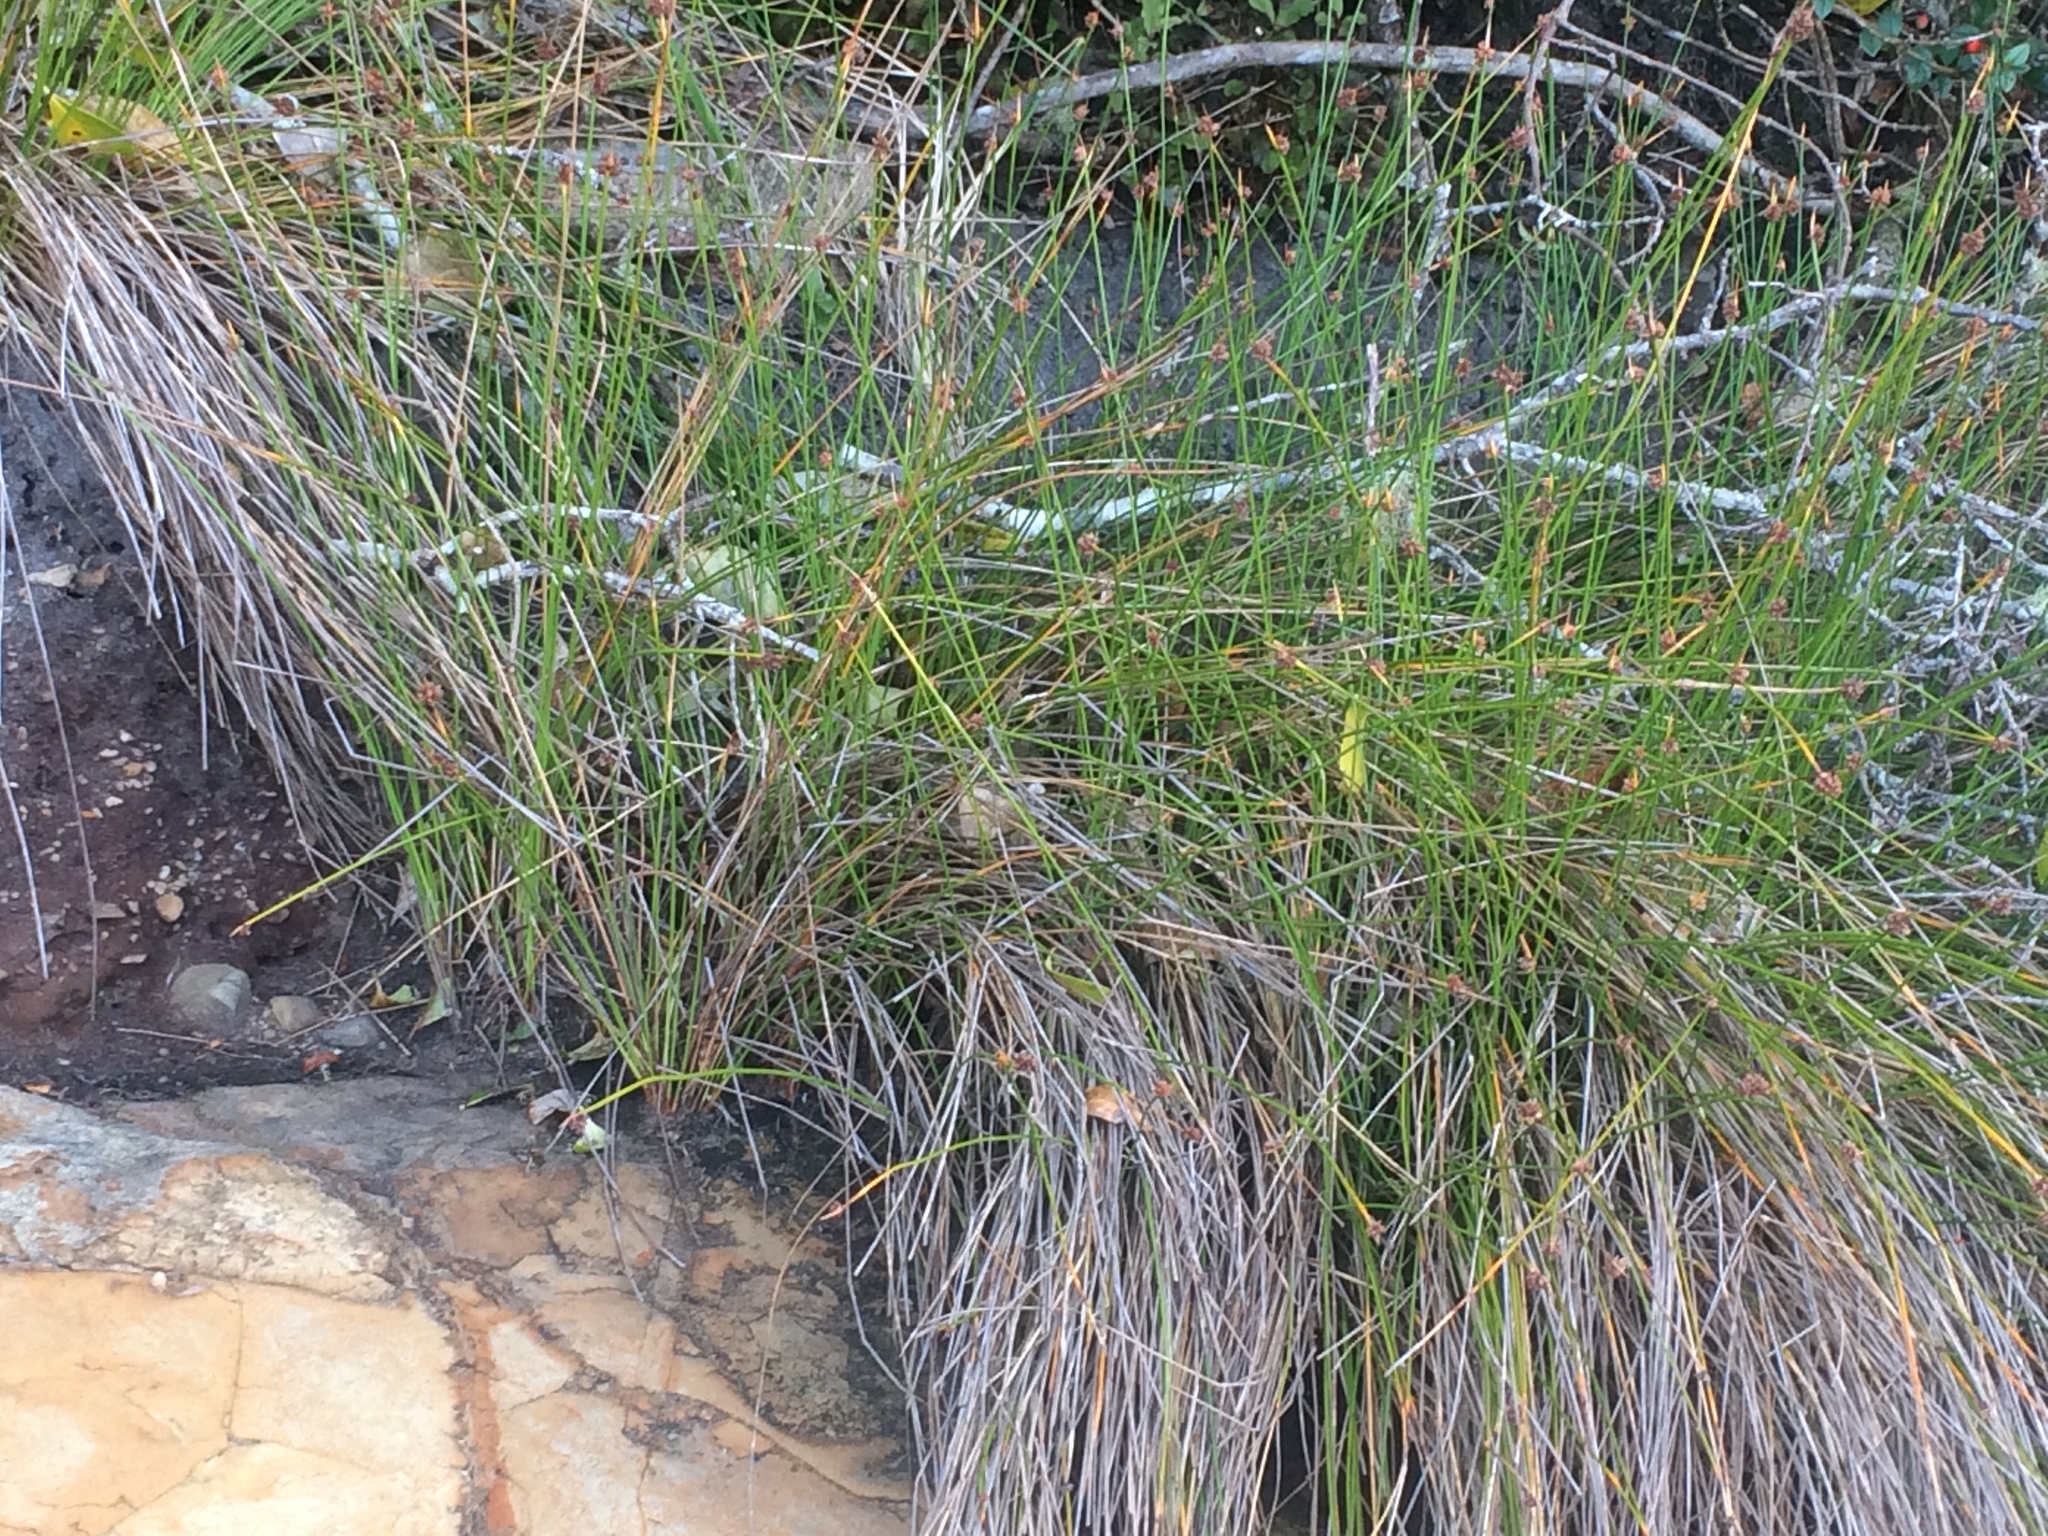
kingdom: Plantae
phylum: Tracheophyta
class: Liliopsida
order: Poales
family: Cyperaceae
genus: Ficinia
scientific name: Ficinia nodosa
